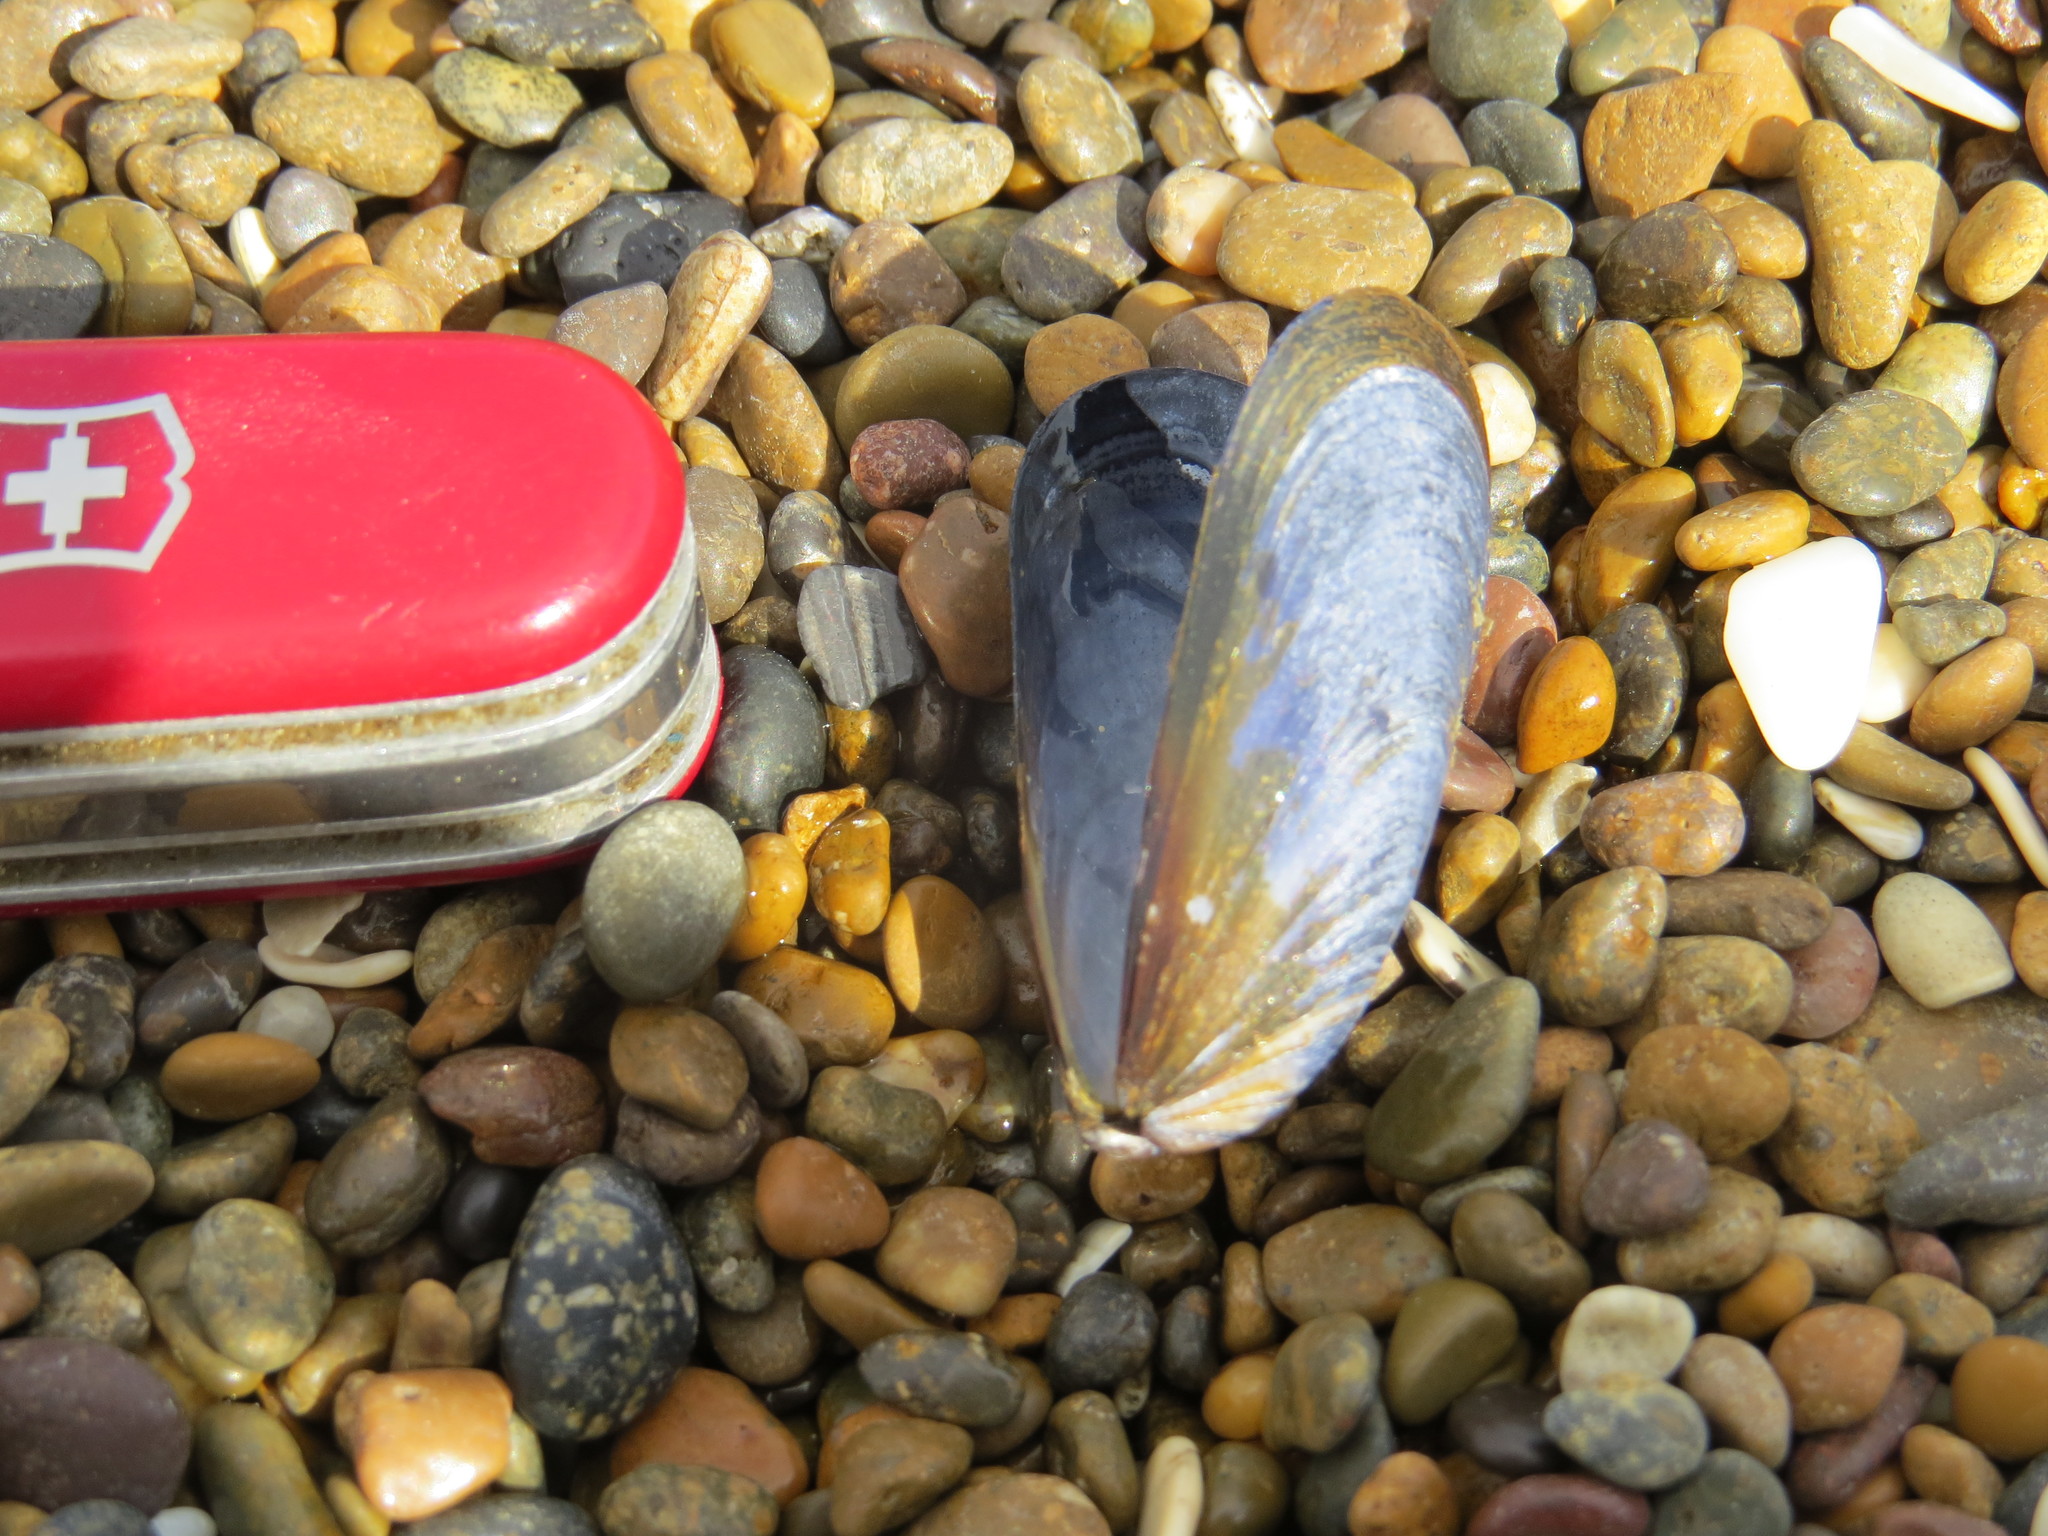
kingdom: Animalia
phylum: Mollusca
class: Bivalvia
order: Mytilida
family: Mytilidae
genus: Mytilus
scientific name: Mytilus platensis
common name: Chilean mussel
